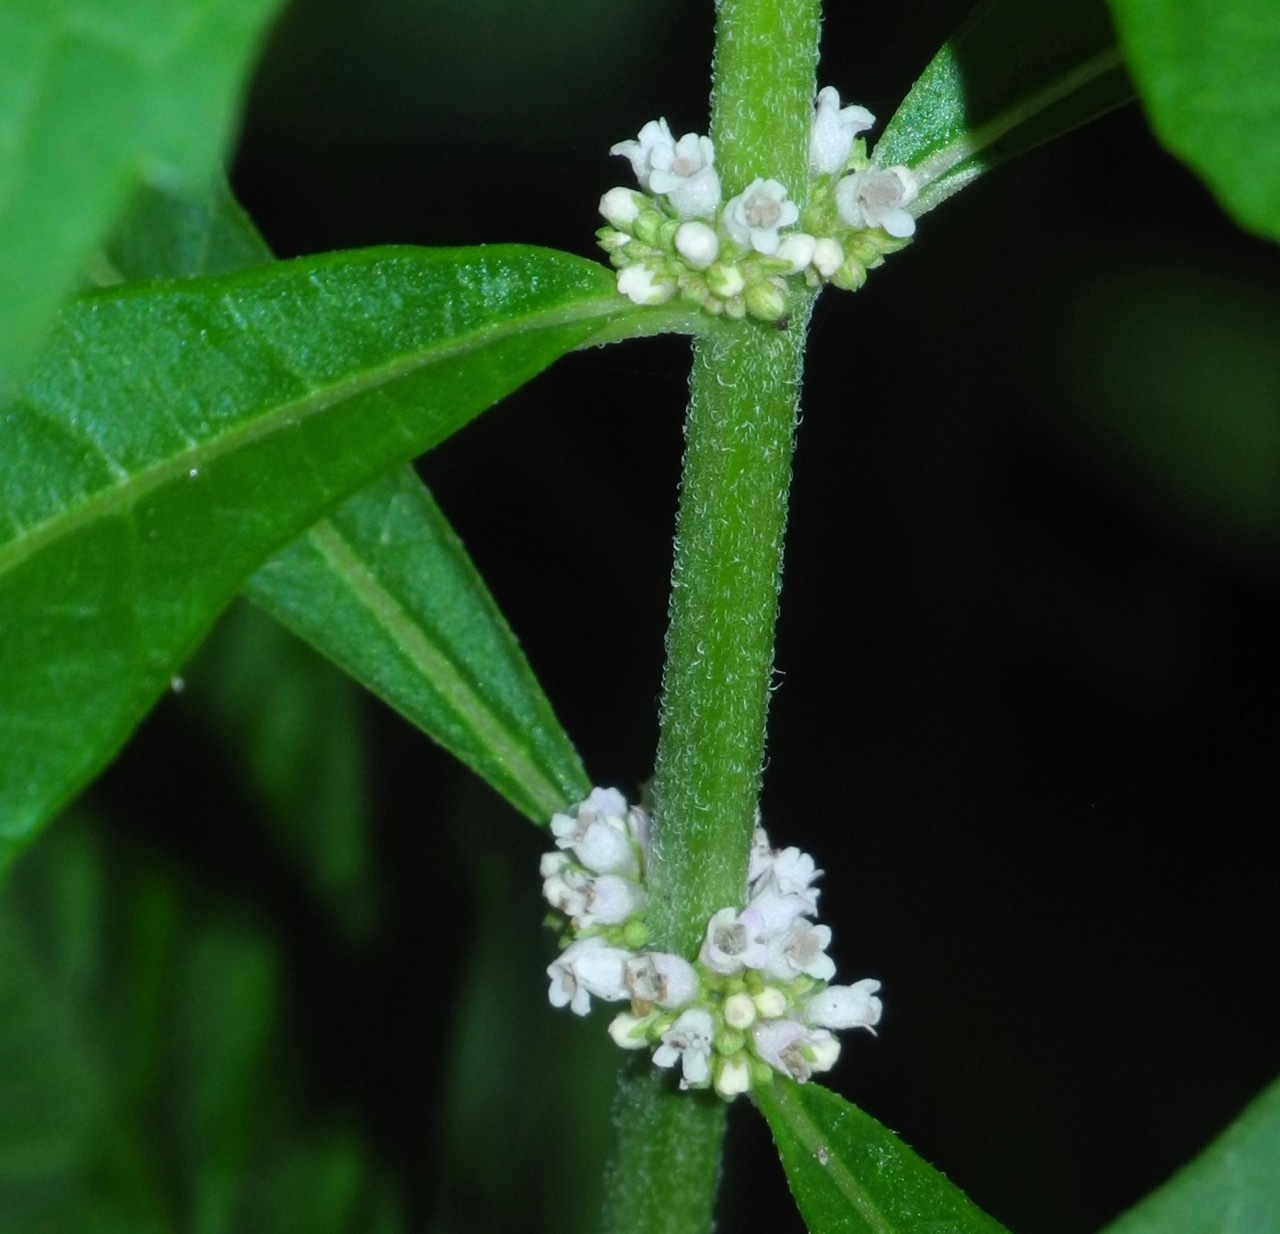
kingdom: Plantae
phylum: Tracheophyta
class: Magnoliopsida
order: Lamiales
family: Lamiaceae
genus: Lycopus
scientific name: Lycopus uniflorus
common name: Northern bugleweed
